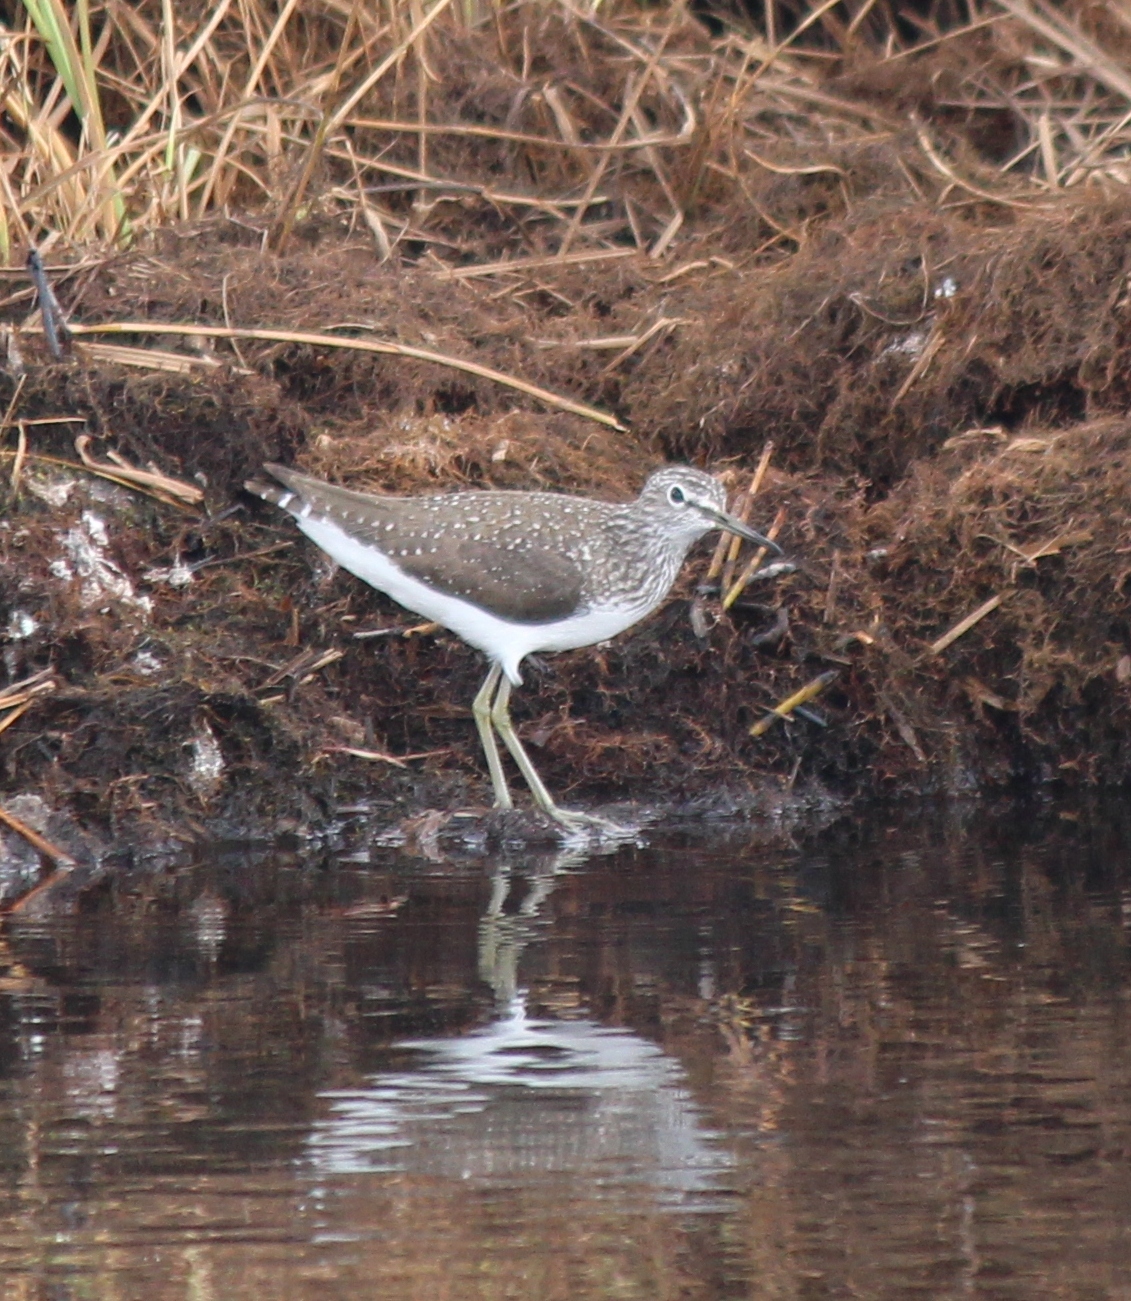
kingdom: Animalia
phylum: Chordata
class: Aves
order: Charadriiformes
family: Scolopacidae
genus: Tringa
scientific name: Tringa ochropus
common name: Green sandpiper
